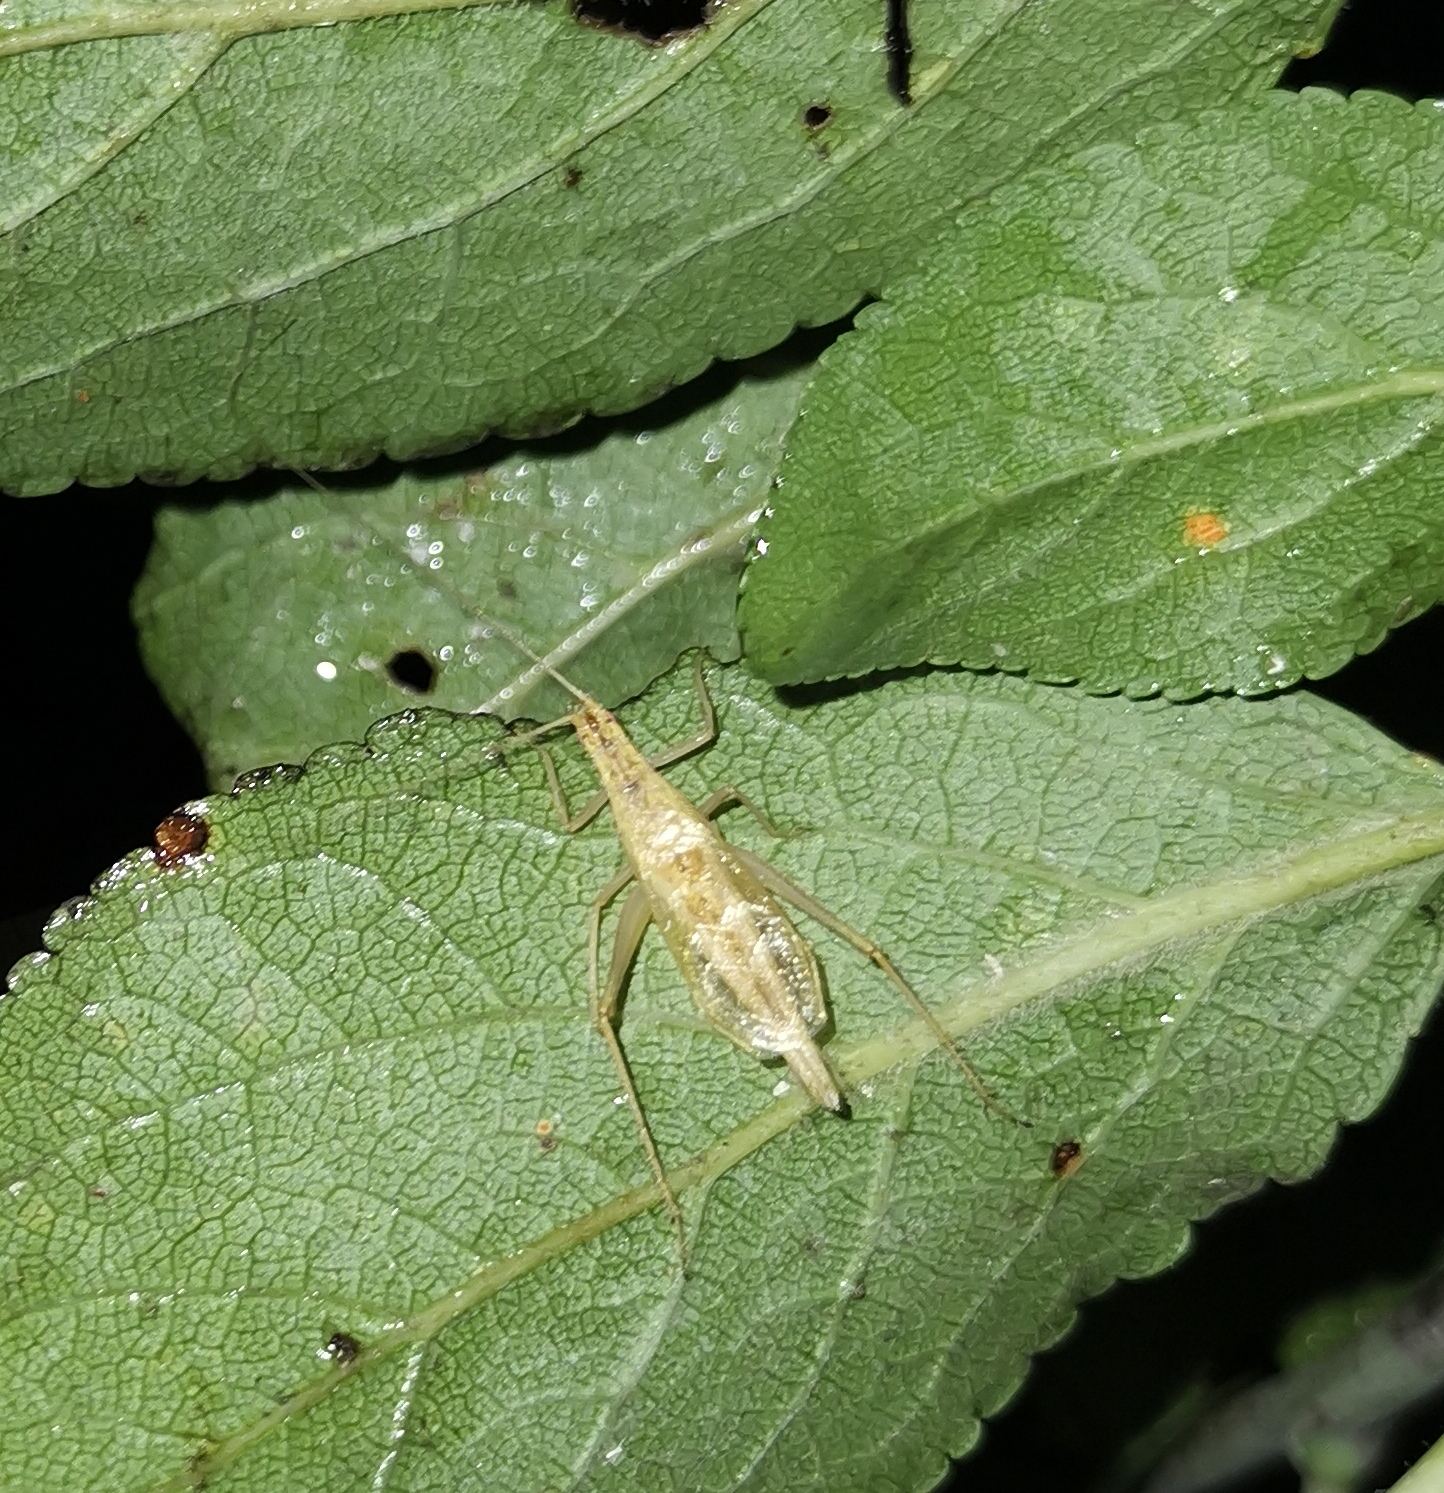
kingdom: Animalia
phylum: Arthropoda
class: Insecta
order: Orthoptera
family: Gryllidae
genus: Oecanthus
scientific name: Oecanthus pellucens
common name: Tree-cricket
